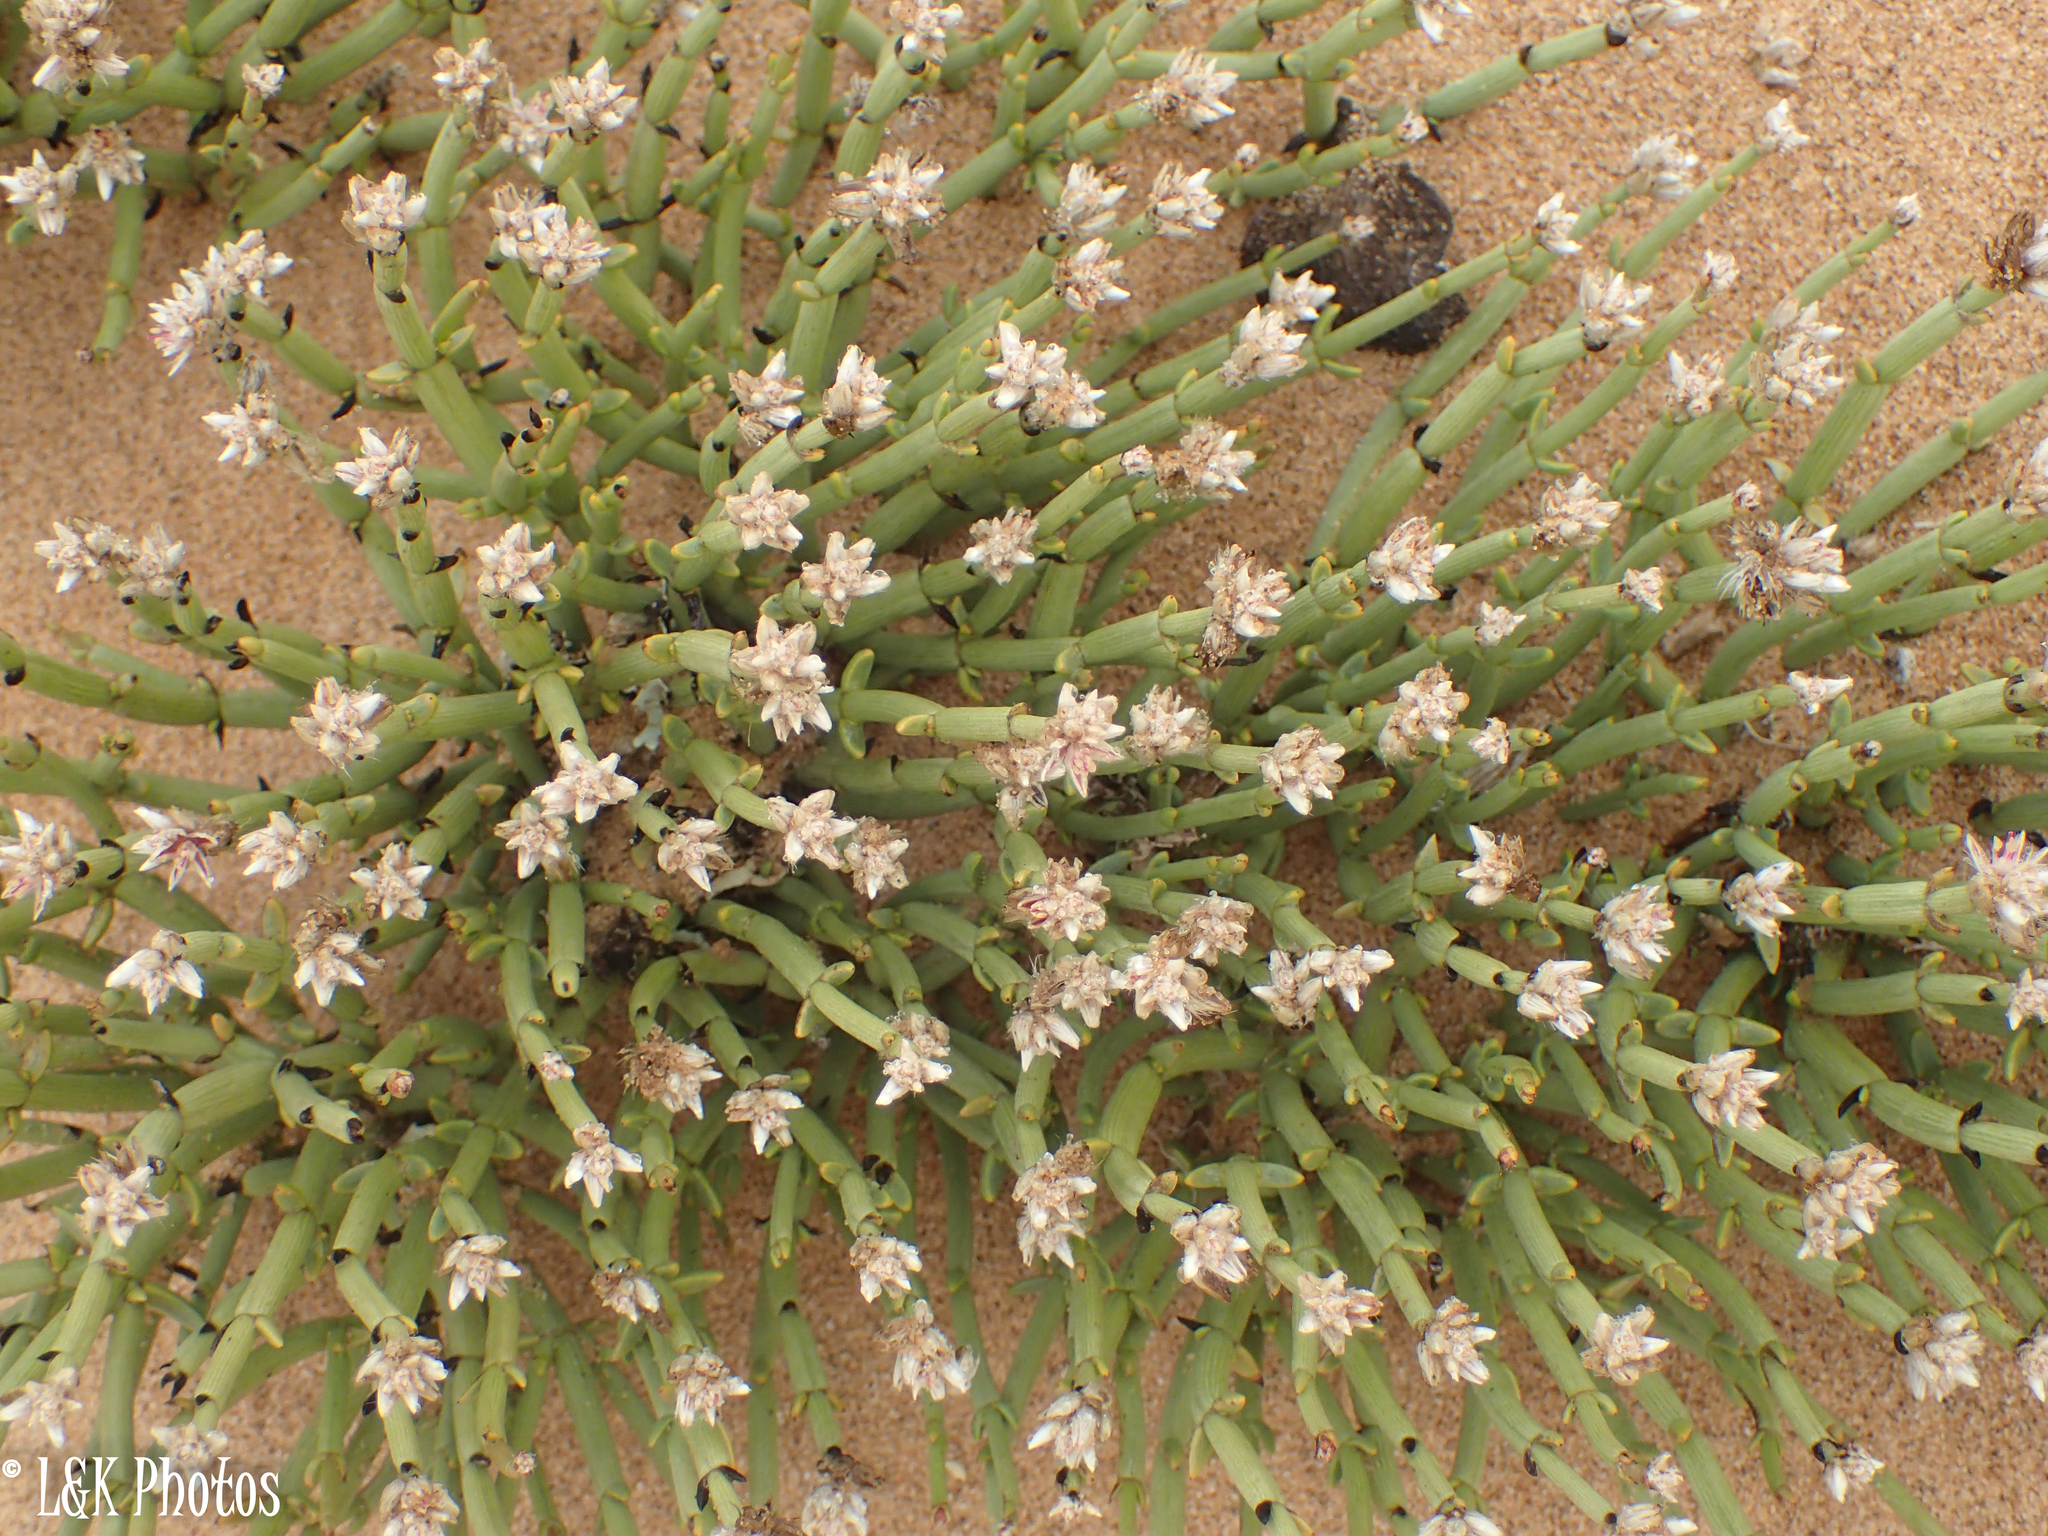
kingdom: Plantae
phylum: Tracheophyta
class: Magnoliopsida
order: Caryophyllales
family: Amaranthaceae
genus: Arthraerva
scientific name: Arthraerva leubnitziae
